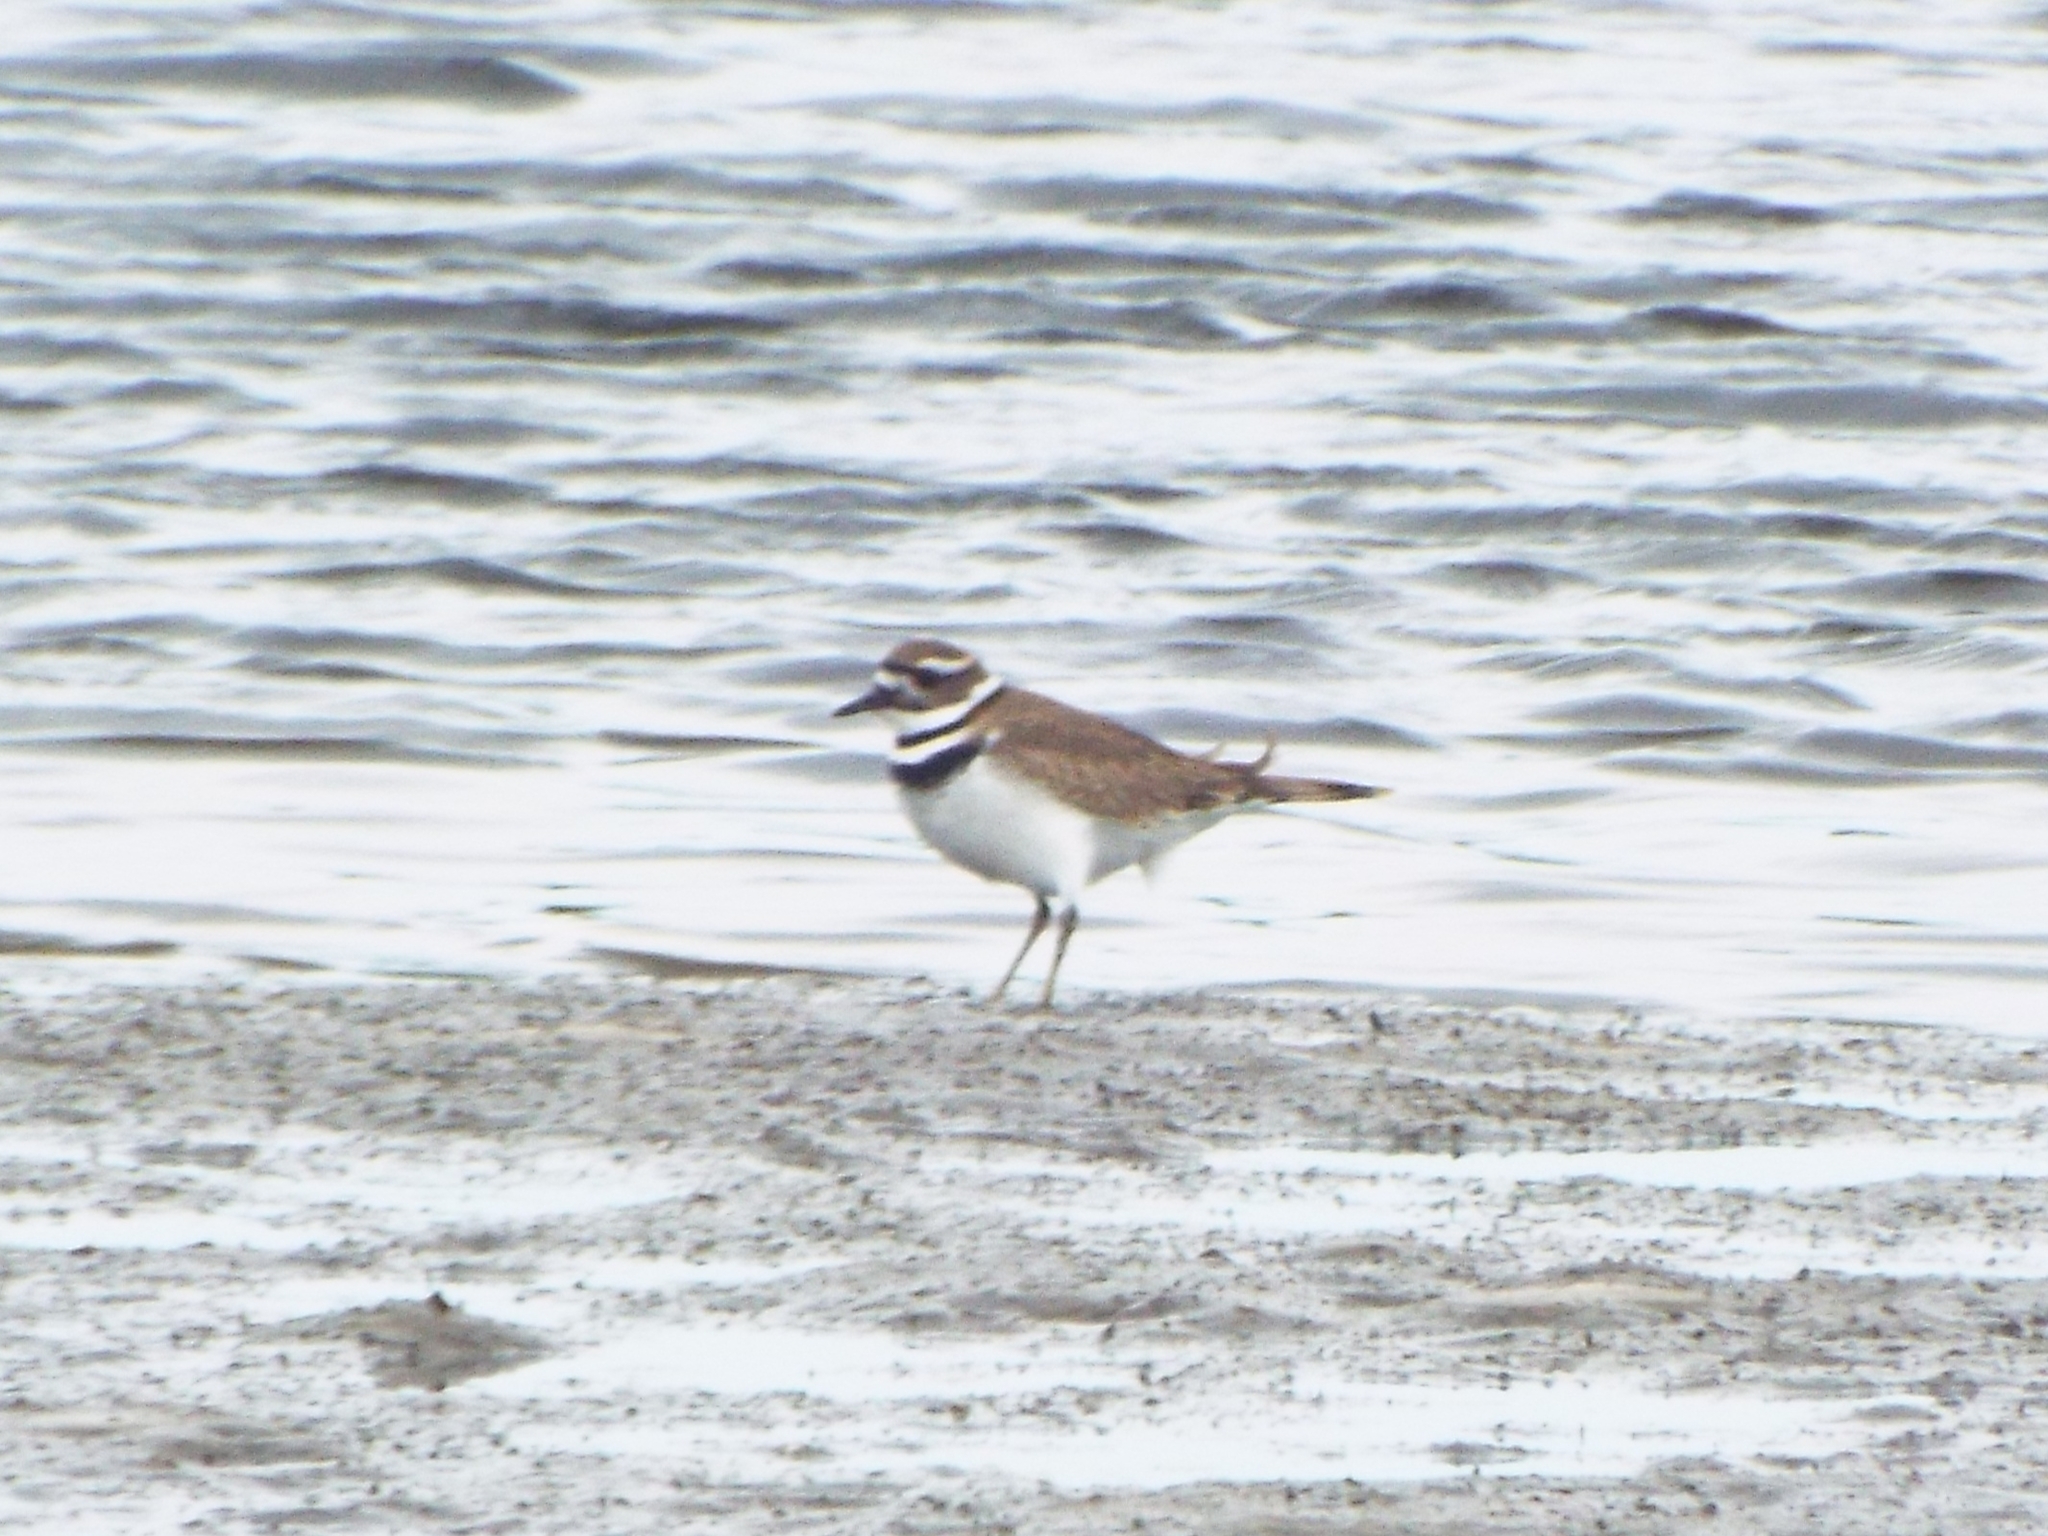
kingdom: Animalia
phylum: Chordata
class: Aves
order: Charadriiformes
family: Charadriidae
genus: Charadrius
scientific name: Charadrius vociferus
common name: Killdeer
